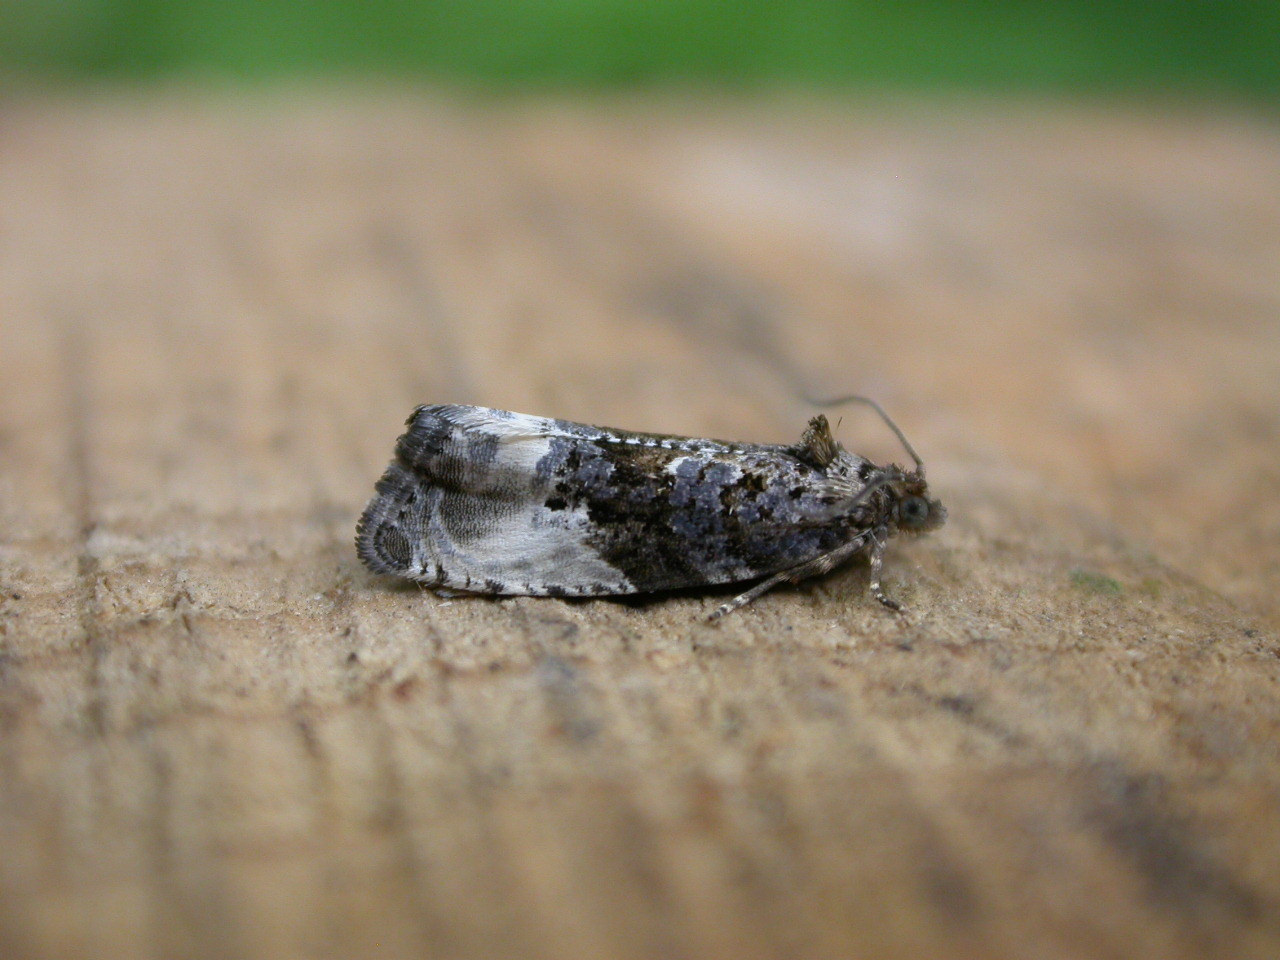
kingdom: Animalia
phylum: Arthropoda
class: Insecta
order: Lepidoptera
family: Tortricidae
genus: Hedya
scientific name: Hedya nubiferana
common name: Marbled orchard tortrix
